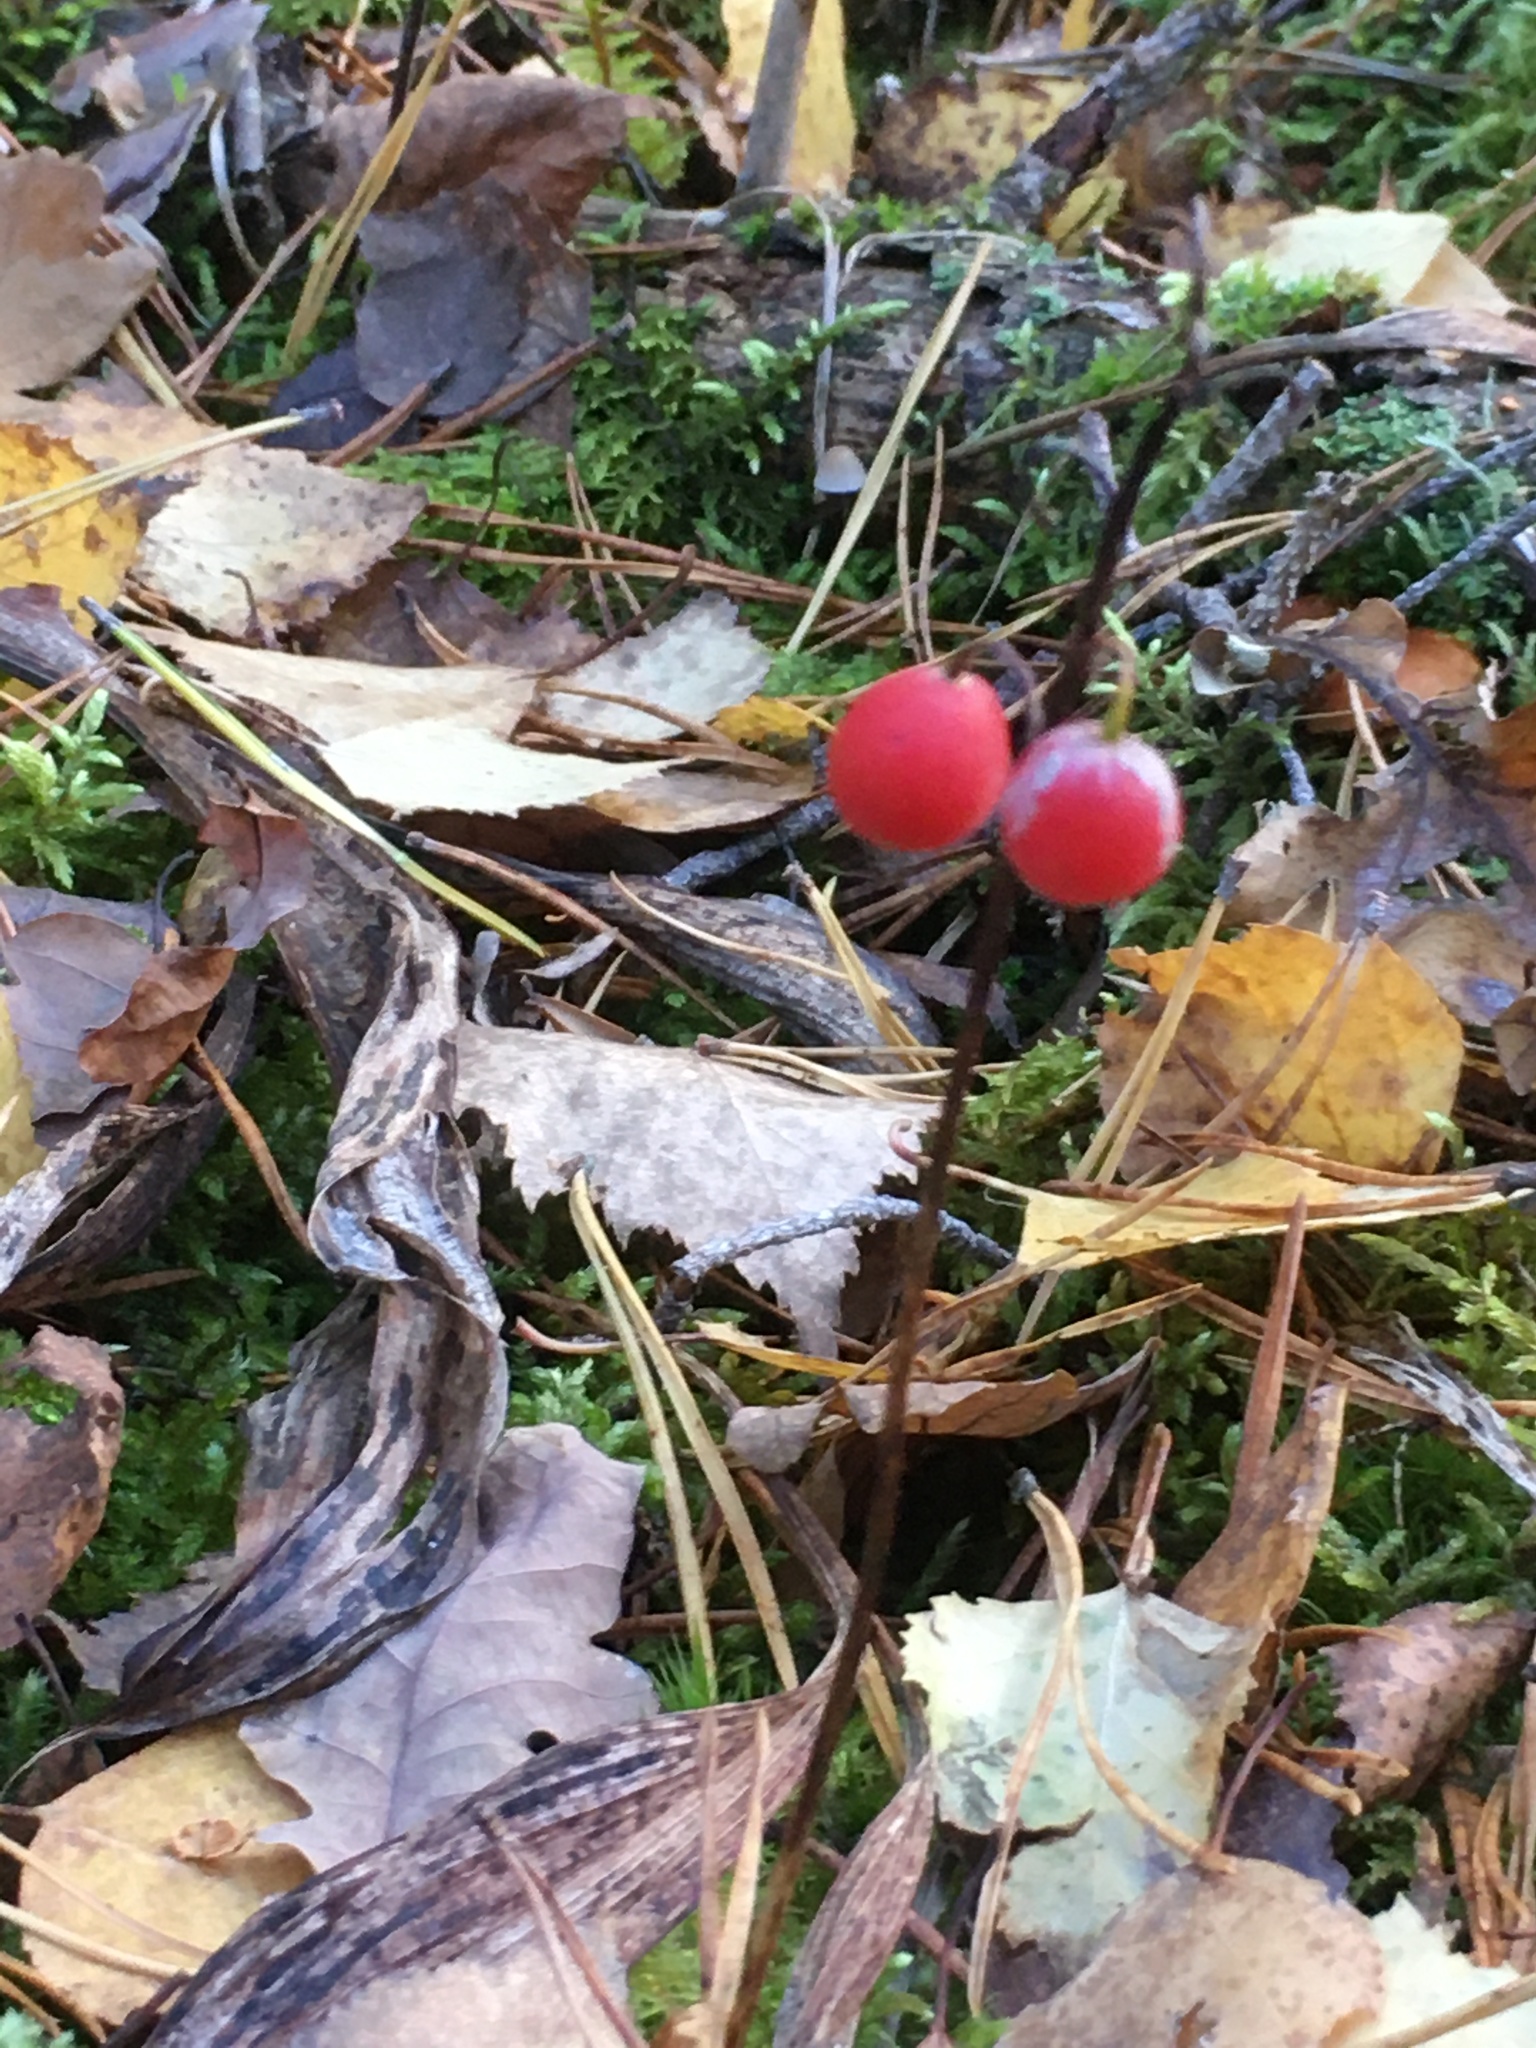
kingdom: Plantae
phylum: Tracheophyta
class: Liliopsida
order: Asparagales
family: Asparagaceae
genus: Convallaria
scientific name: Convallaria majalis
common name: Lily-of-the-valley
